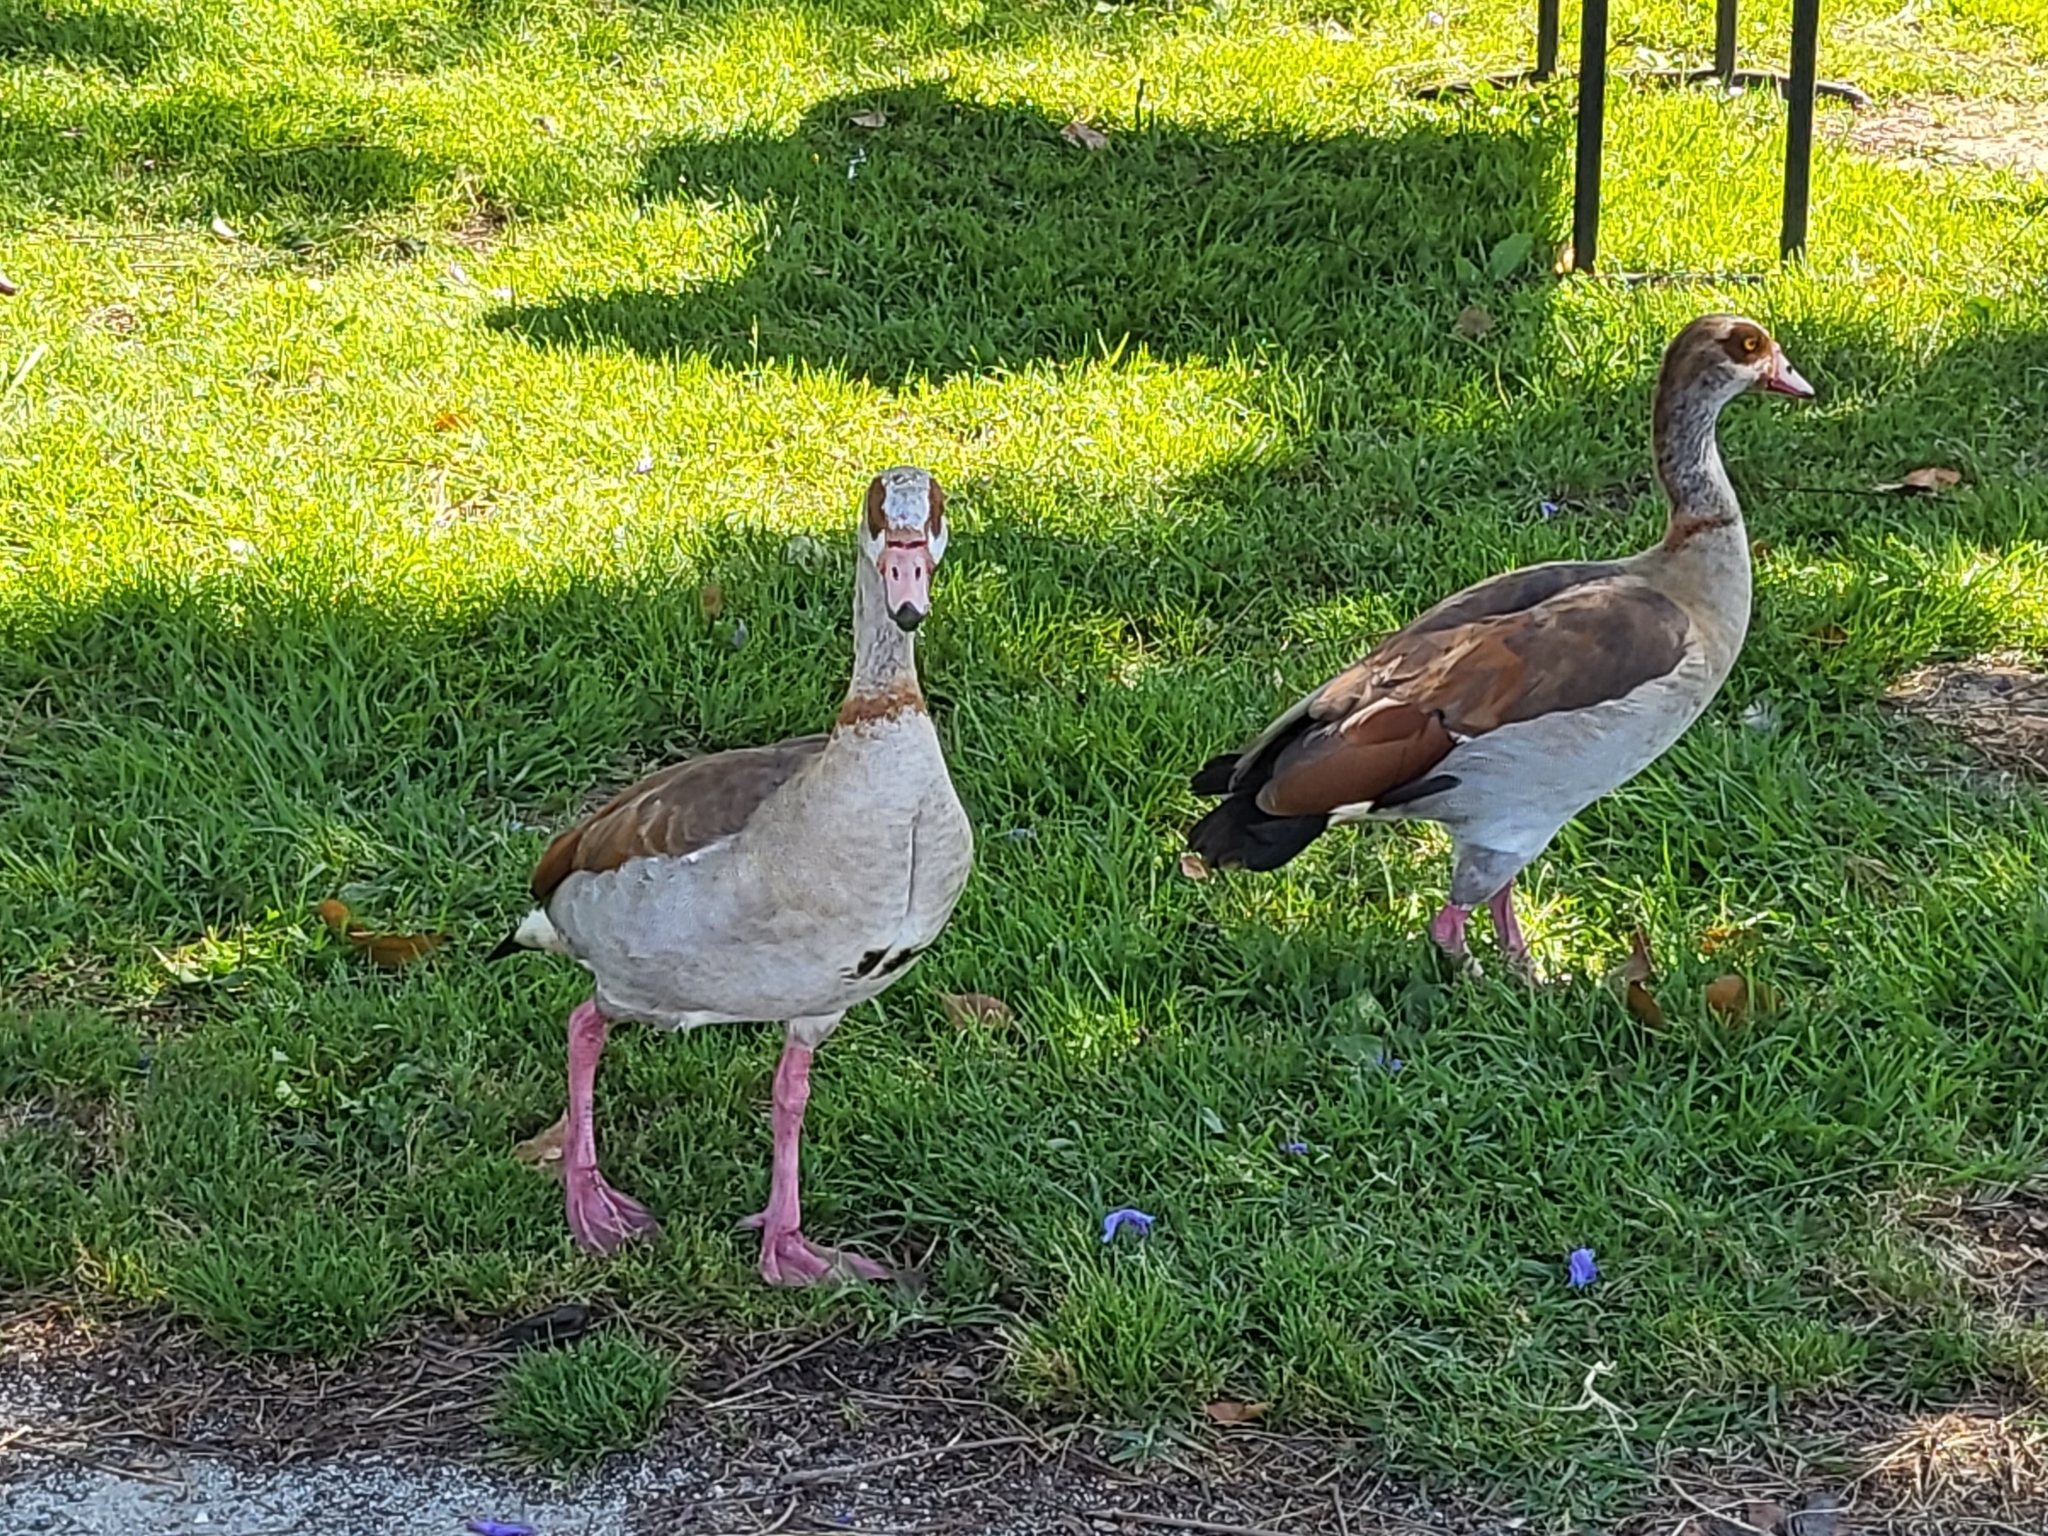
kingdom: Animalia
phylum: Chordata
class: Aves
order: Anseriformes
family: Anatidae
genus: Alopochen
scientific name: Alopochen aegyptiaca
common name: Egyptian goose
